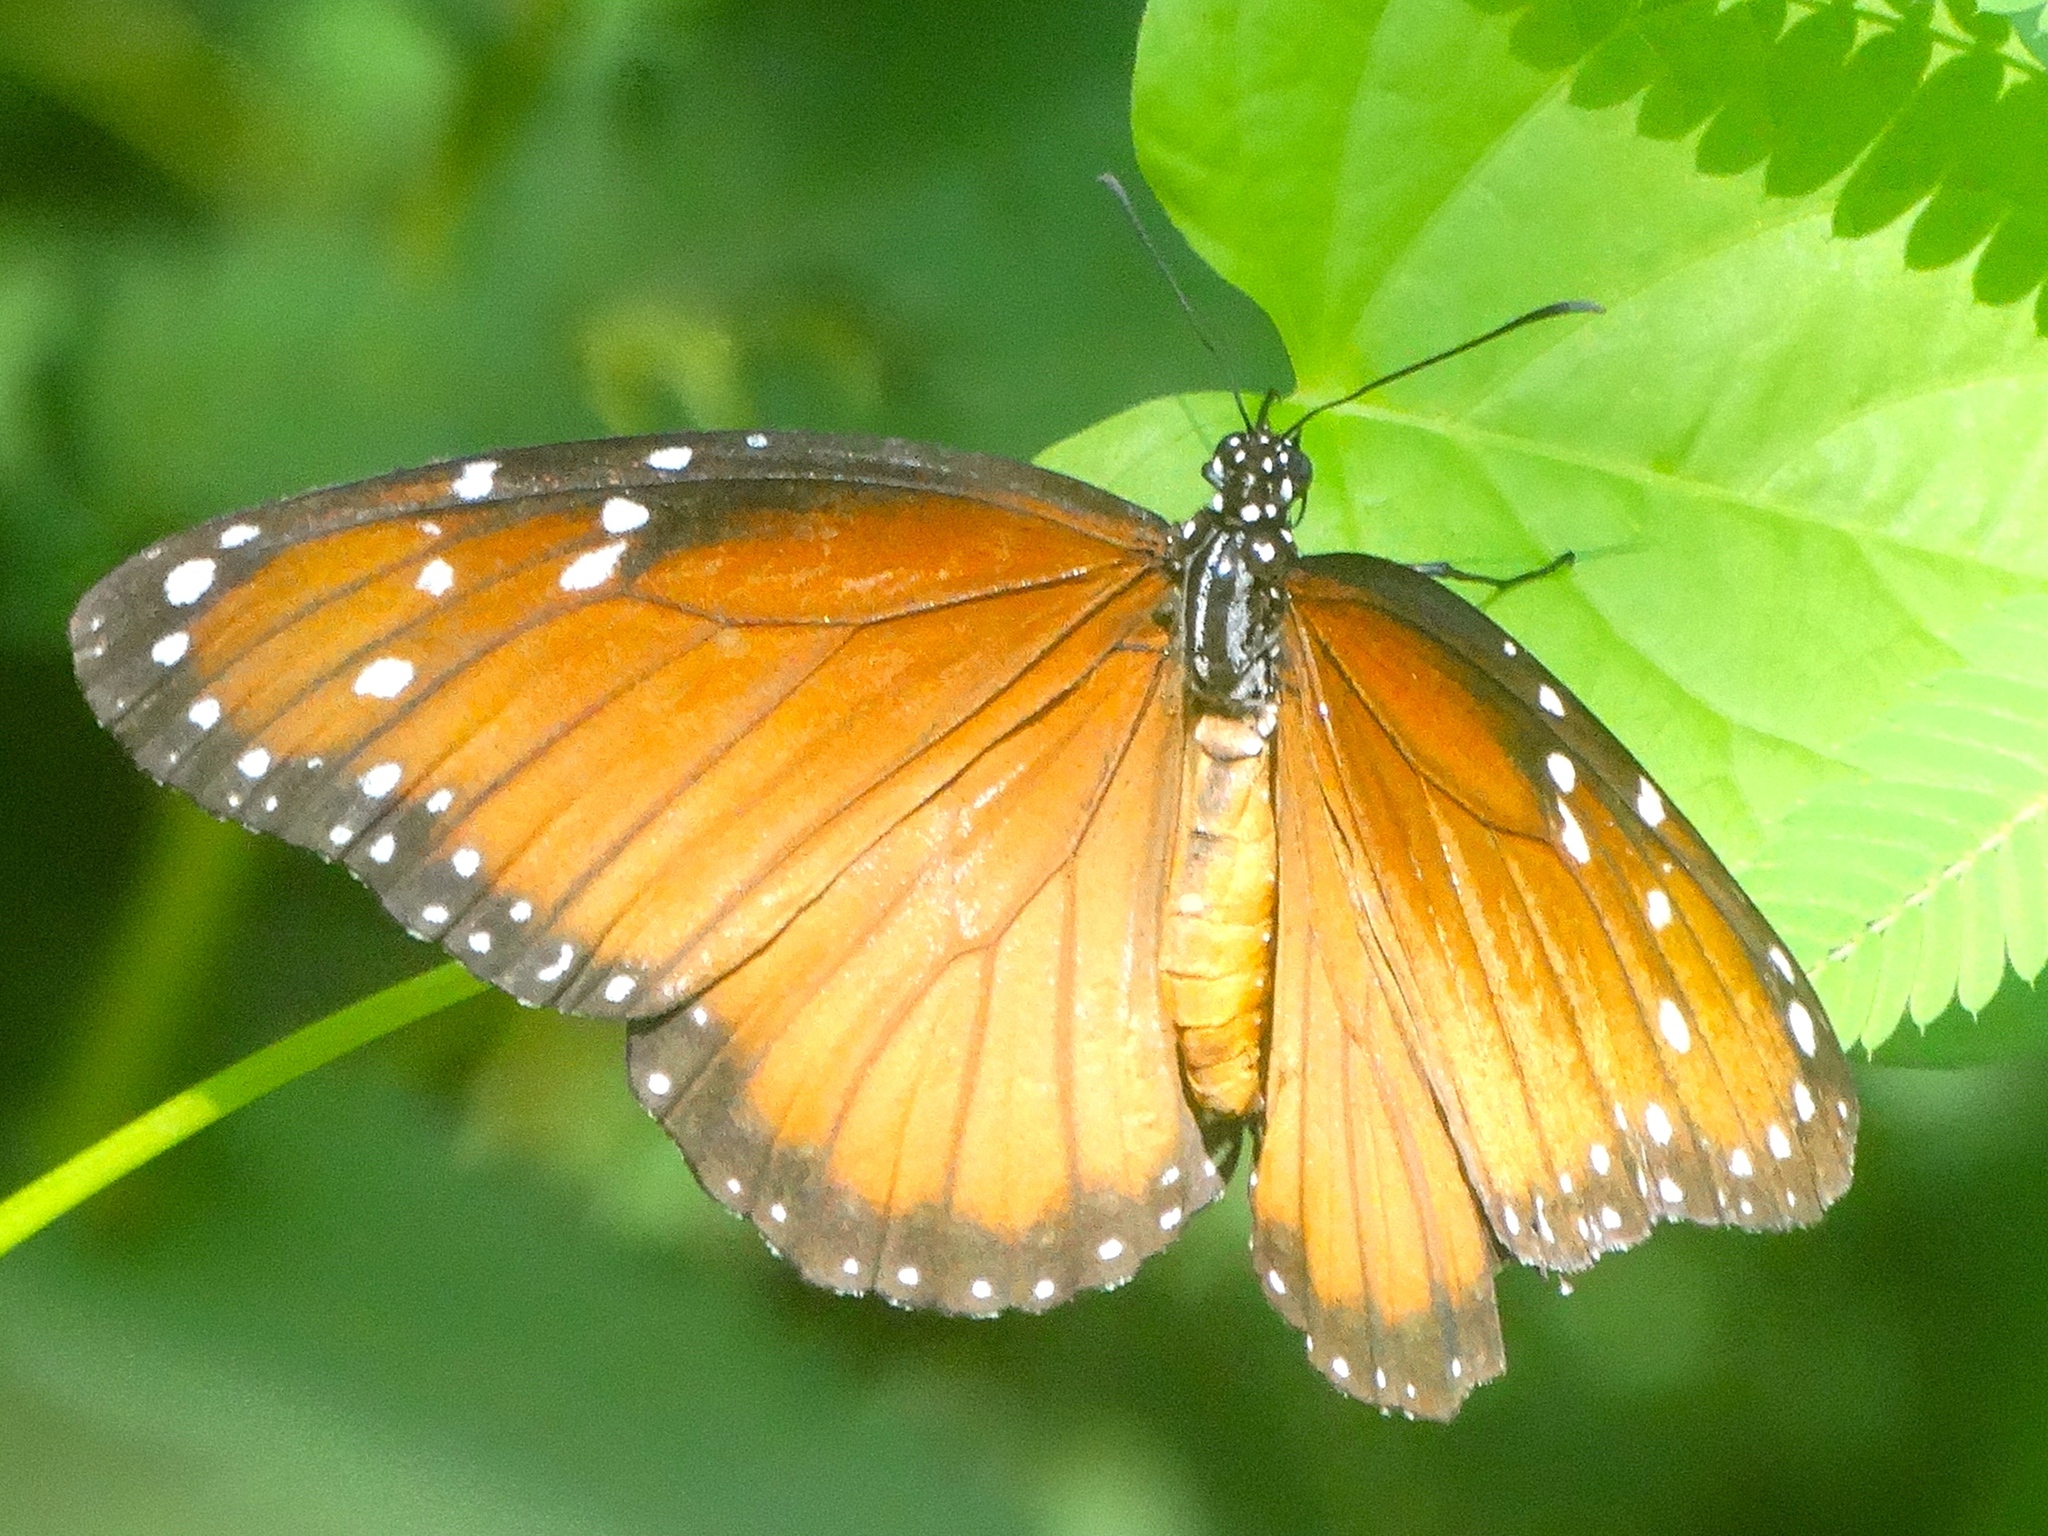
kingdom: Animalia
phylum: Arthropoda
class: Insecta
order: Lepidoptera
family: Nymphalidae
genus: Danaus
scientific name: Danaus eresimus
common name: Soldier
